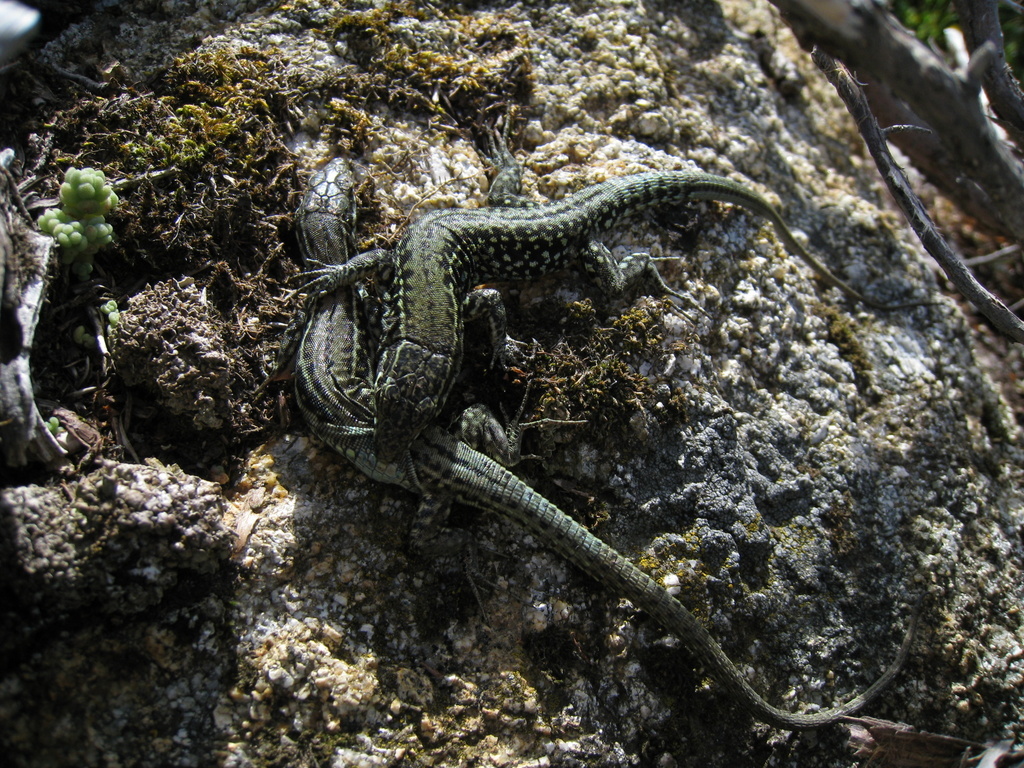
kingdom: Animalia
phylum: Chordata
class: Squamata
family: Lacertidae
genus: Podarcis
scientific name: Podarcis tiliguerta
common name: Tyrrhenian wall lizard
